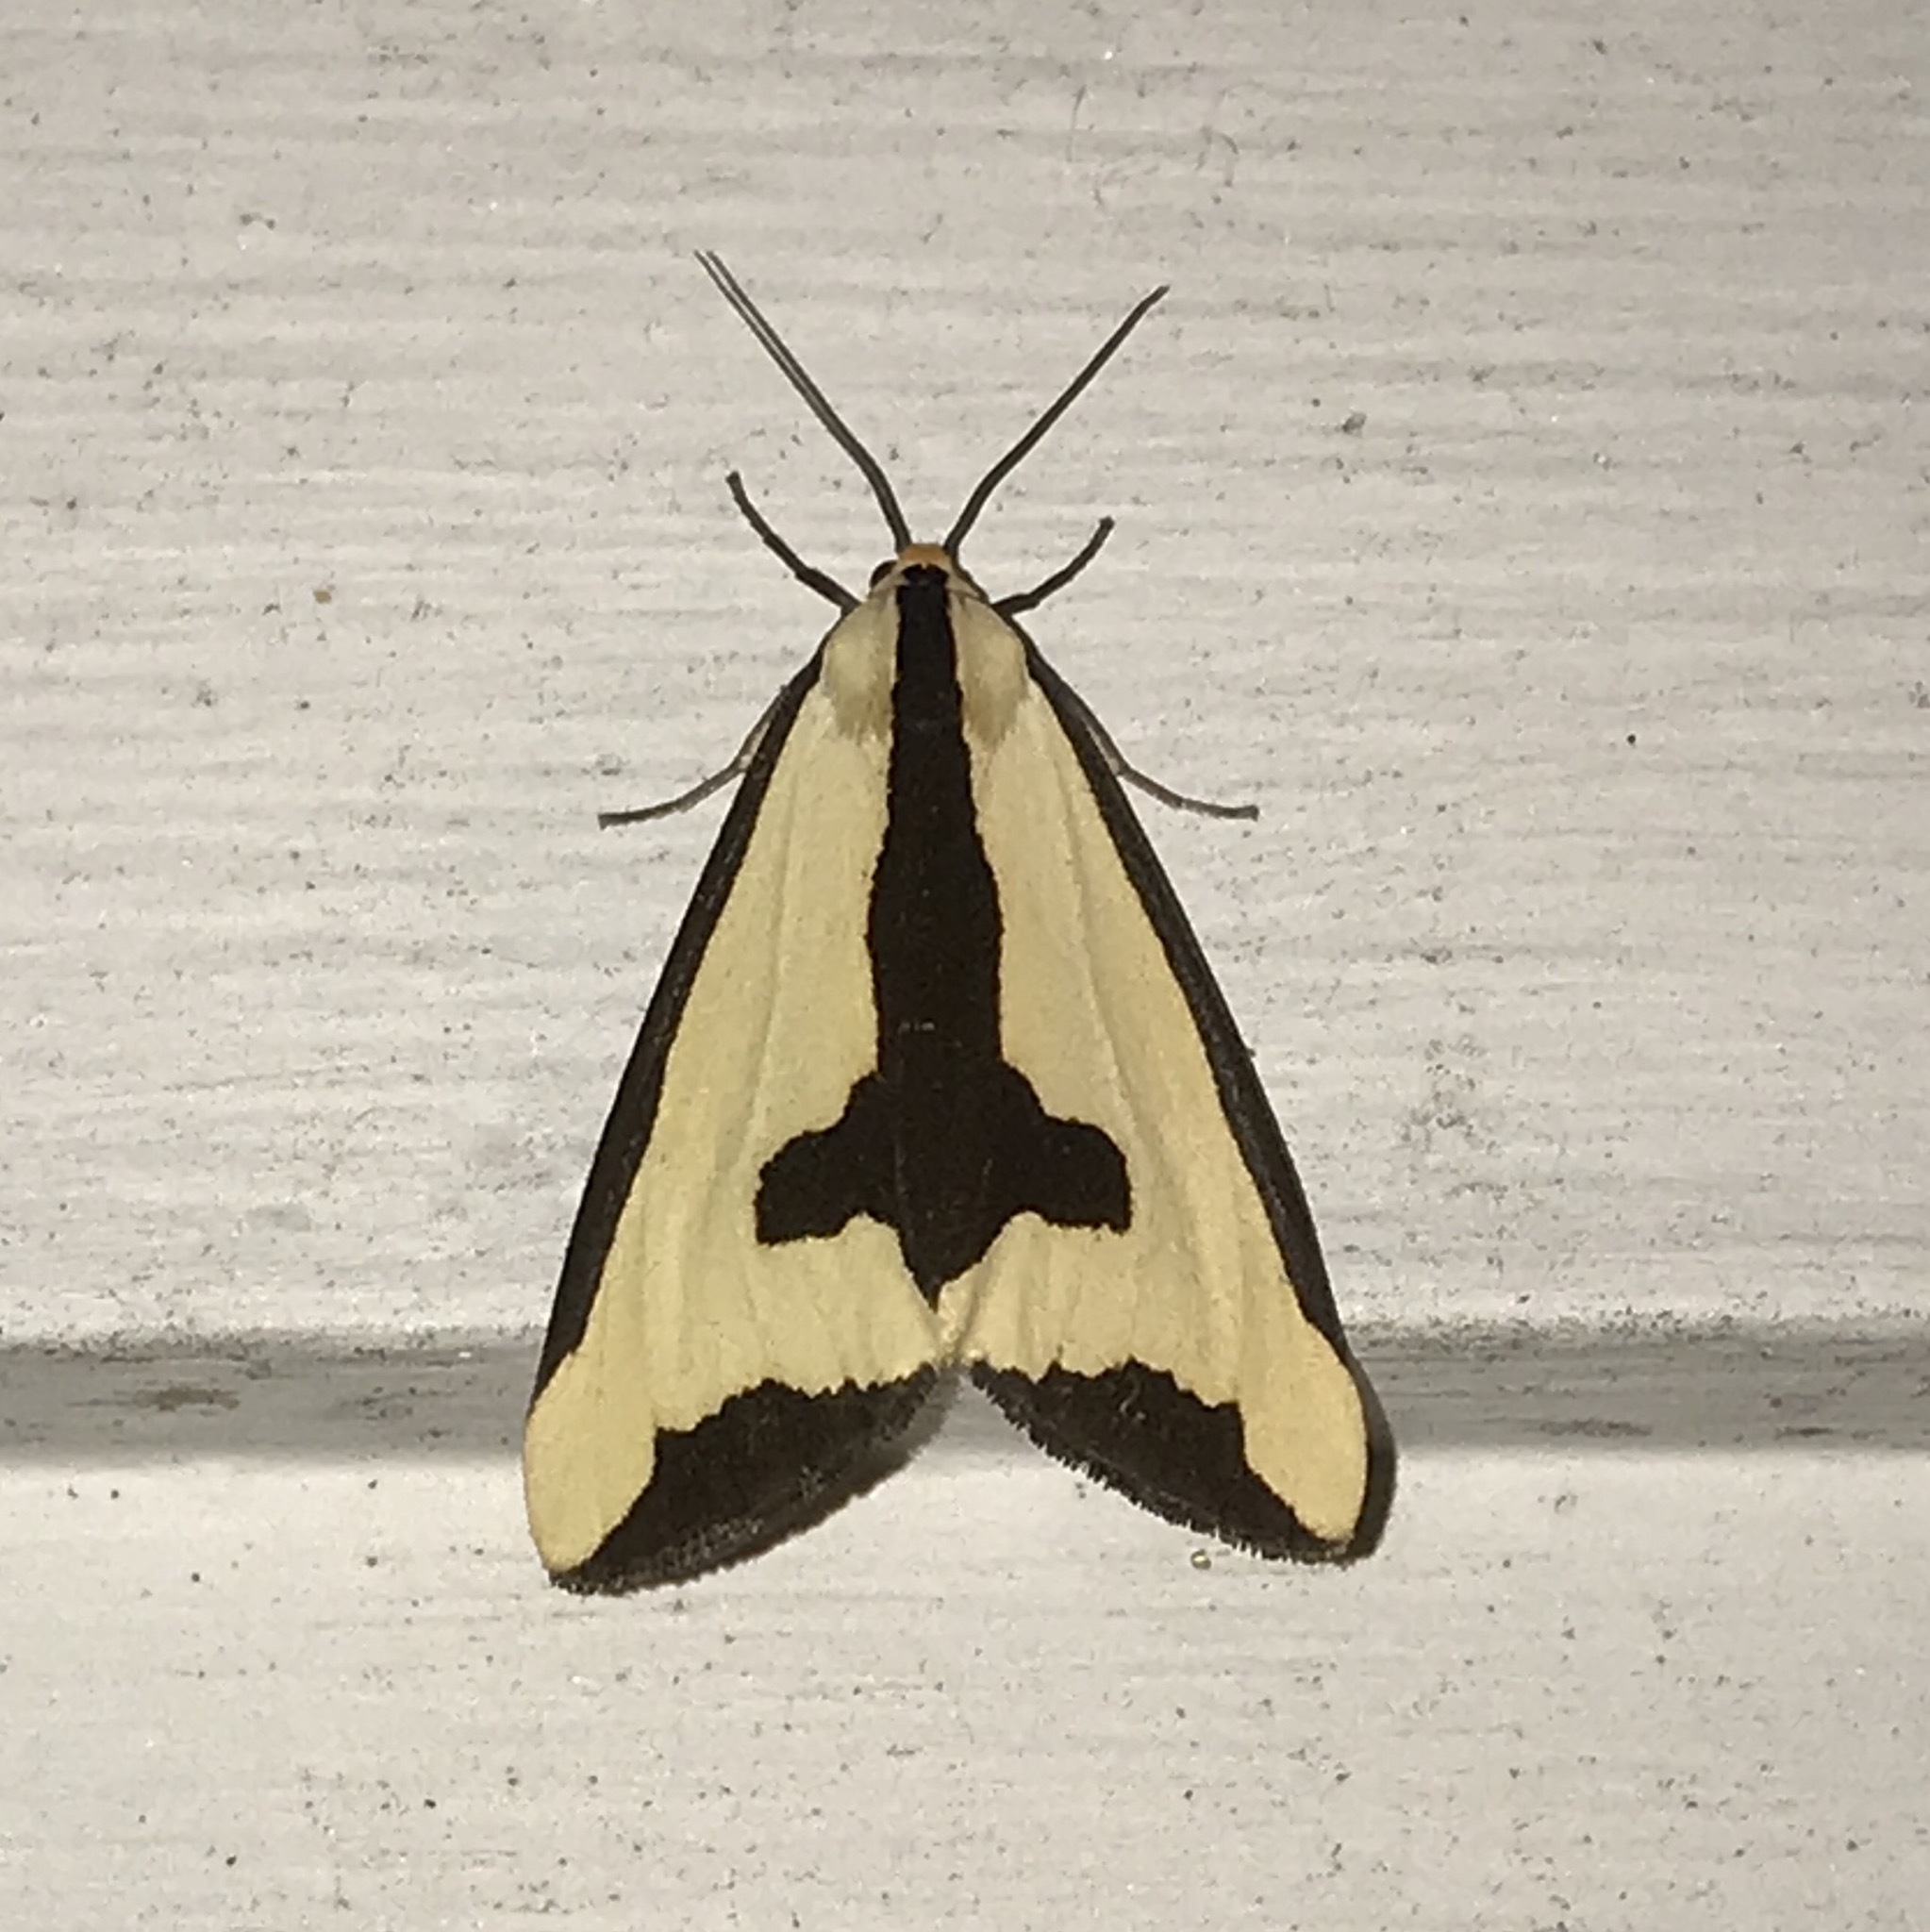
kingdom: Animalia
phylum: Arthropoda
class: Insecta
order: Lepidoptera
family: Erebidae
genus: Haploa
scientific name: Haploa clymene
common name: Clymene moth
